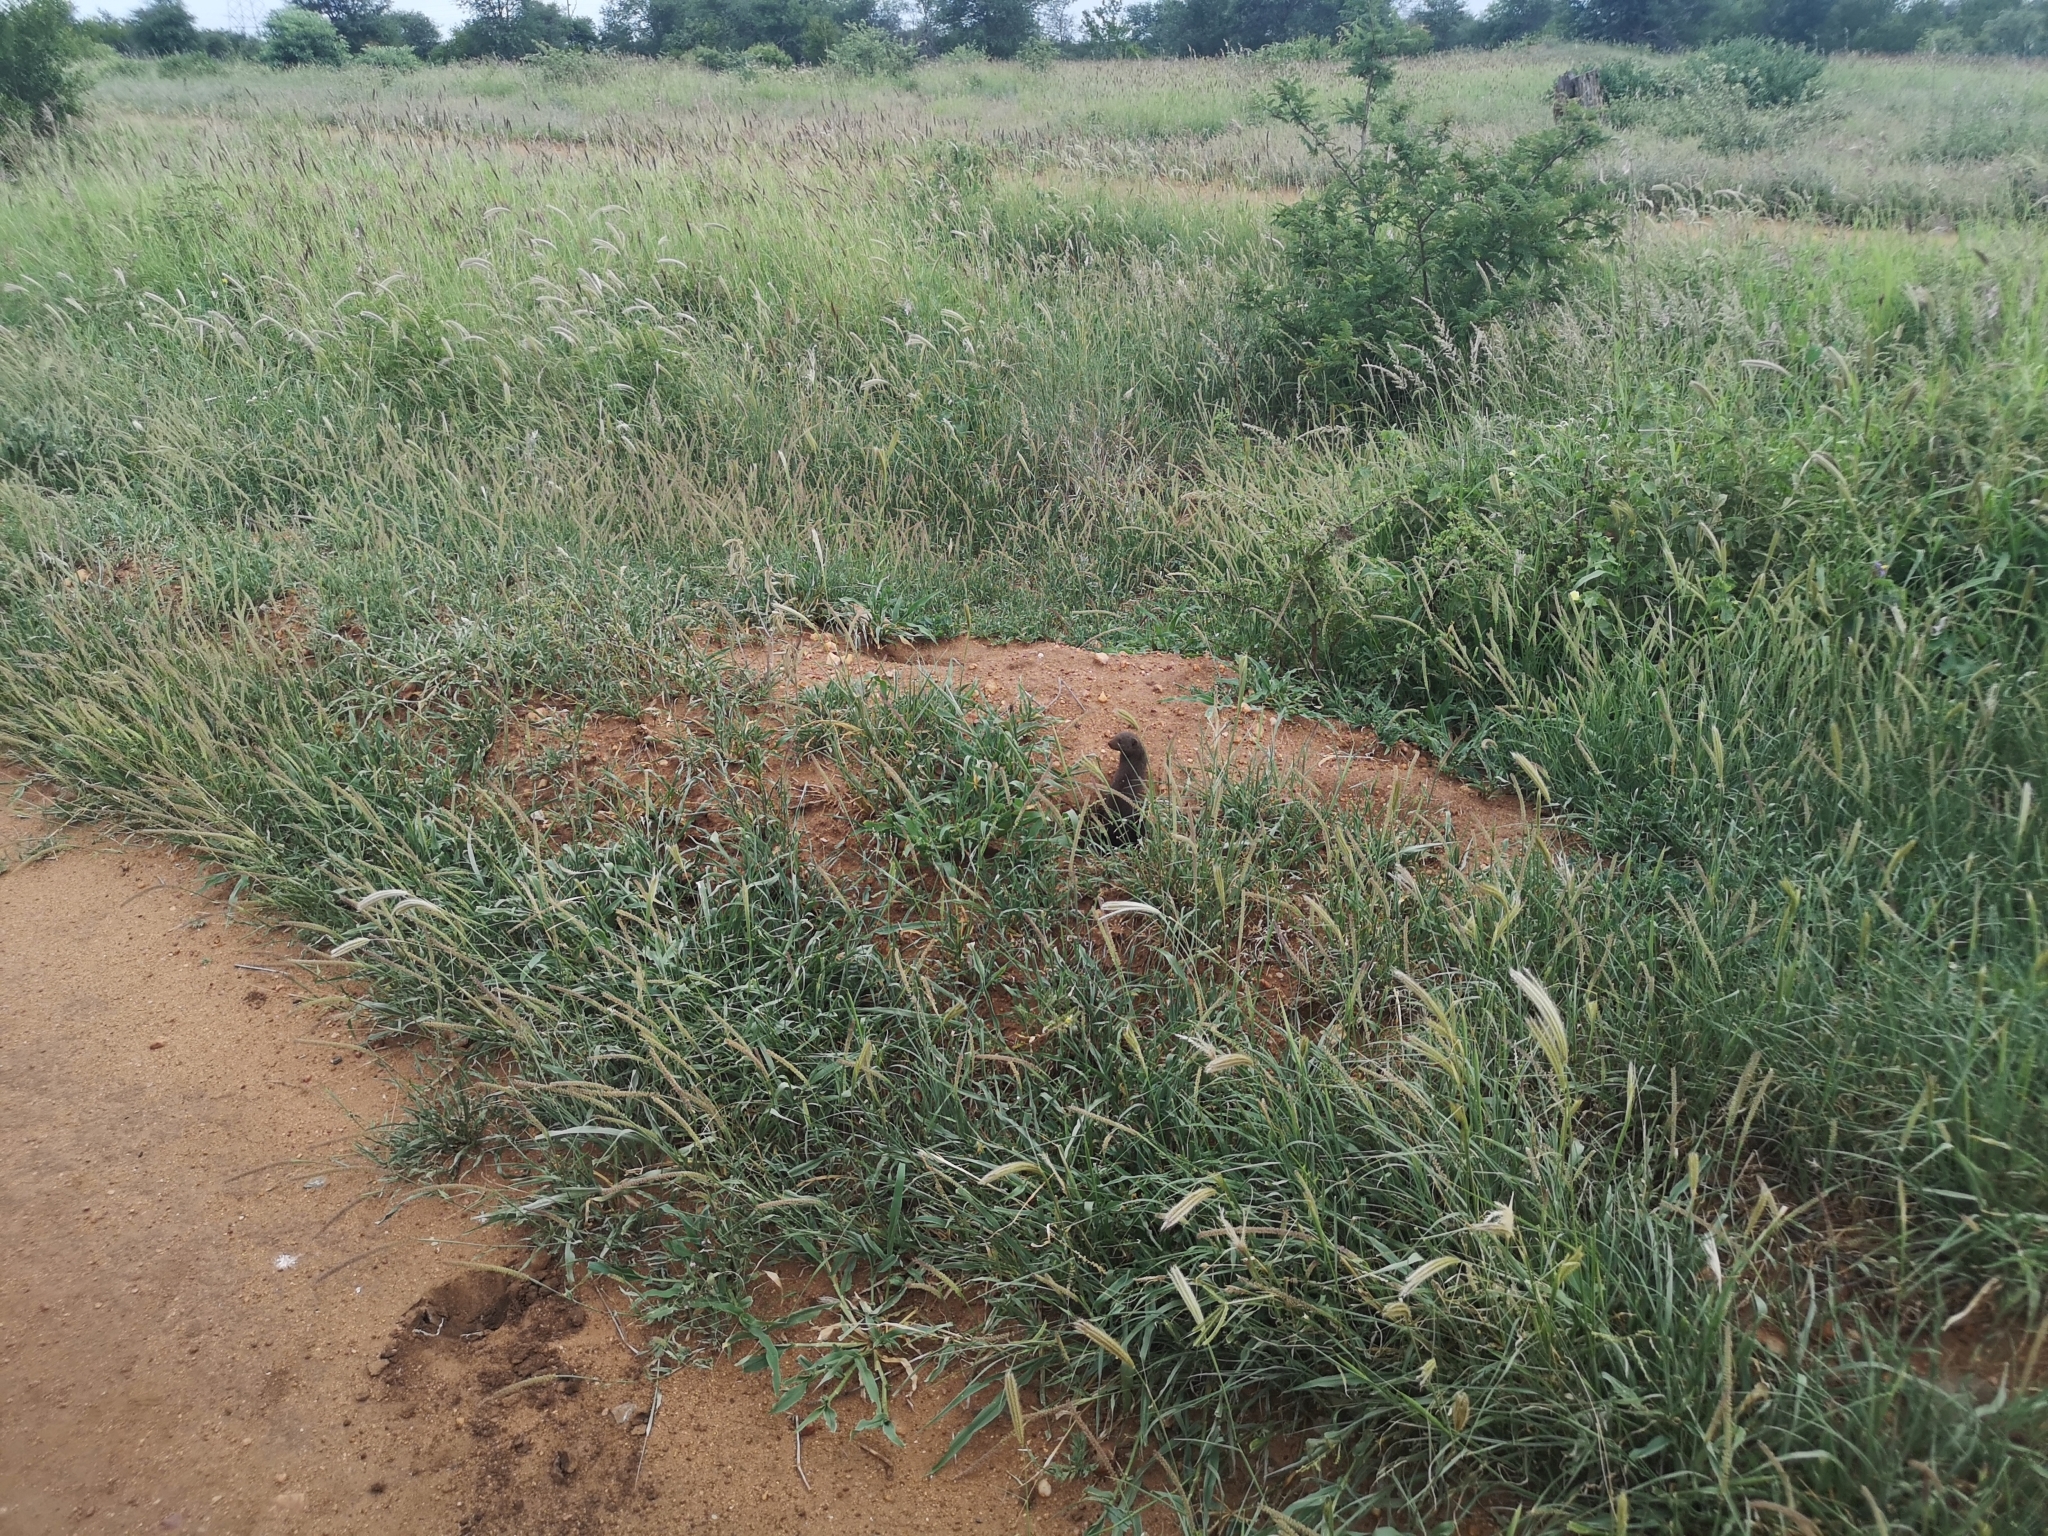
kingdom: Animalia
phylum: Chordata
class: Mammalia
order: Carnivora
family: Herpestidae
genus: Helogale
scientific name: Helogale parvula
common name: Common dwarf mongoose
